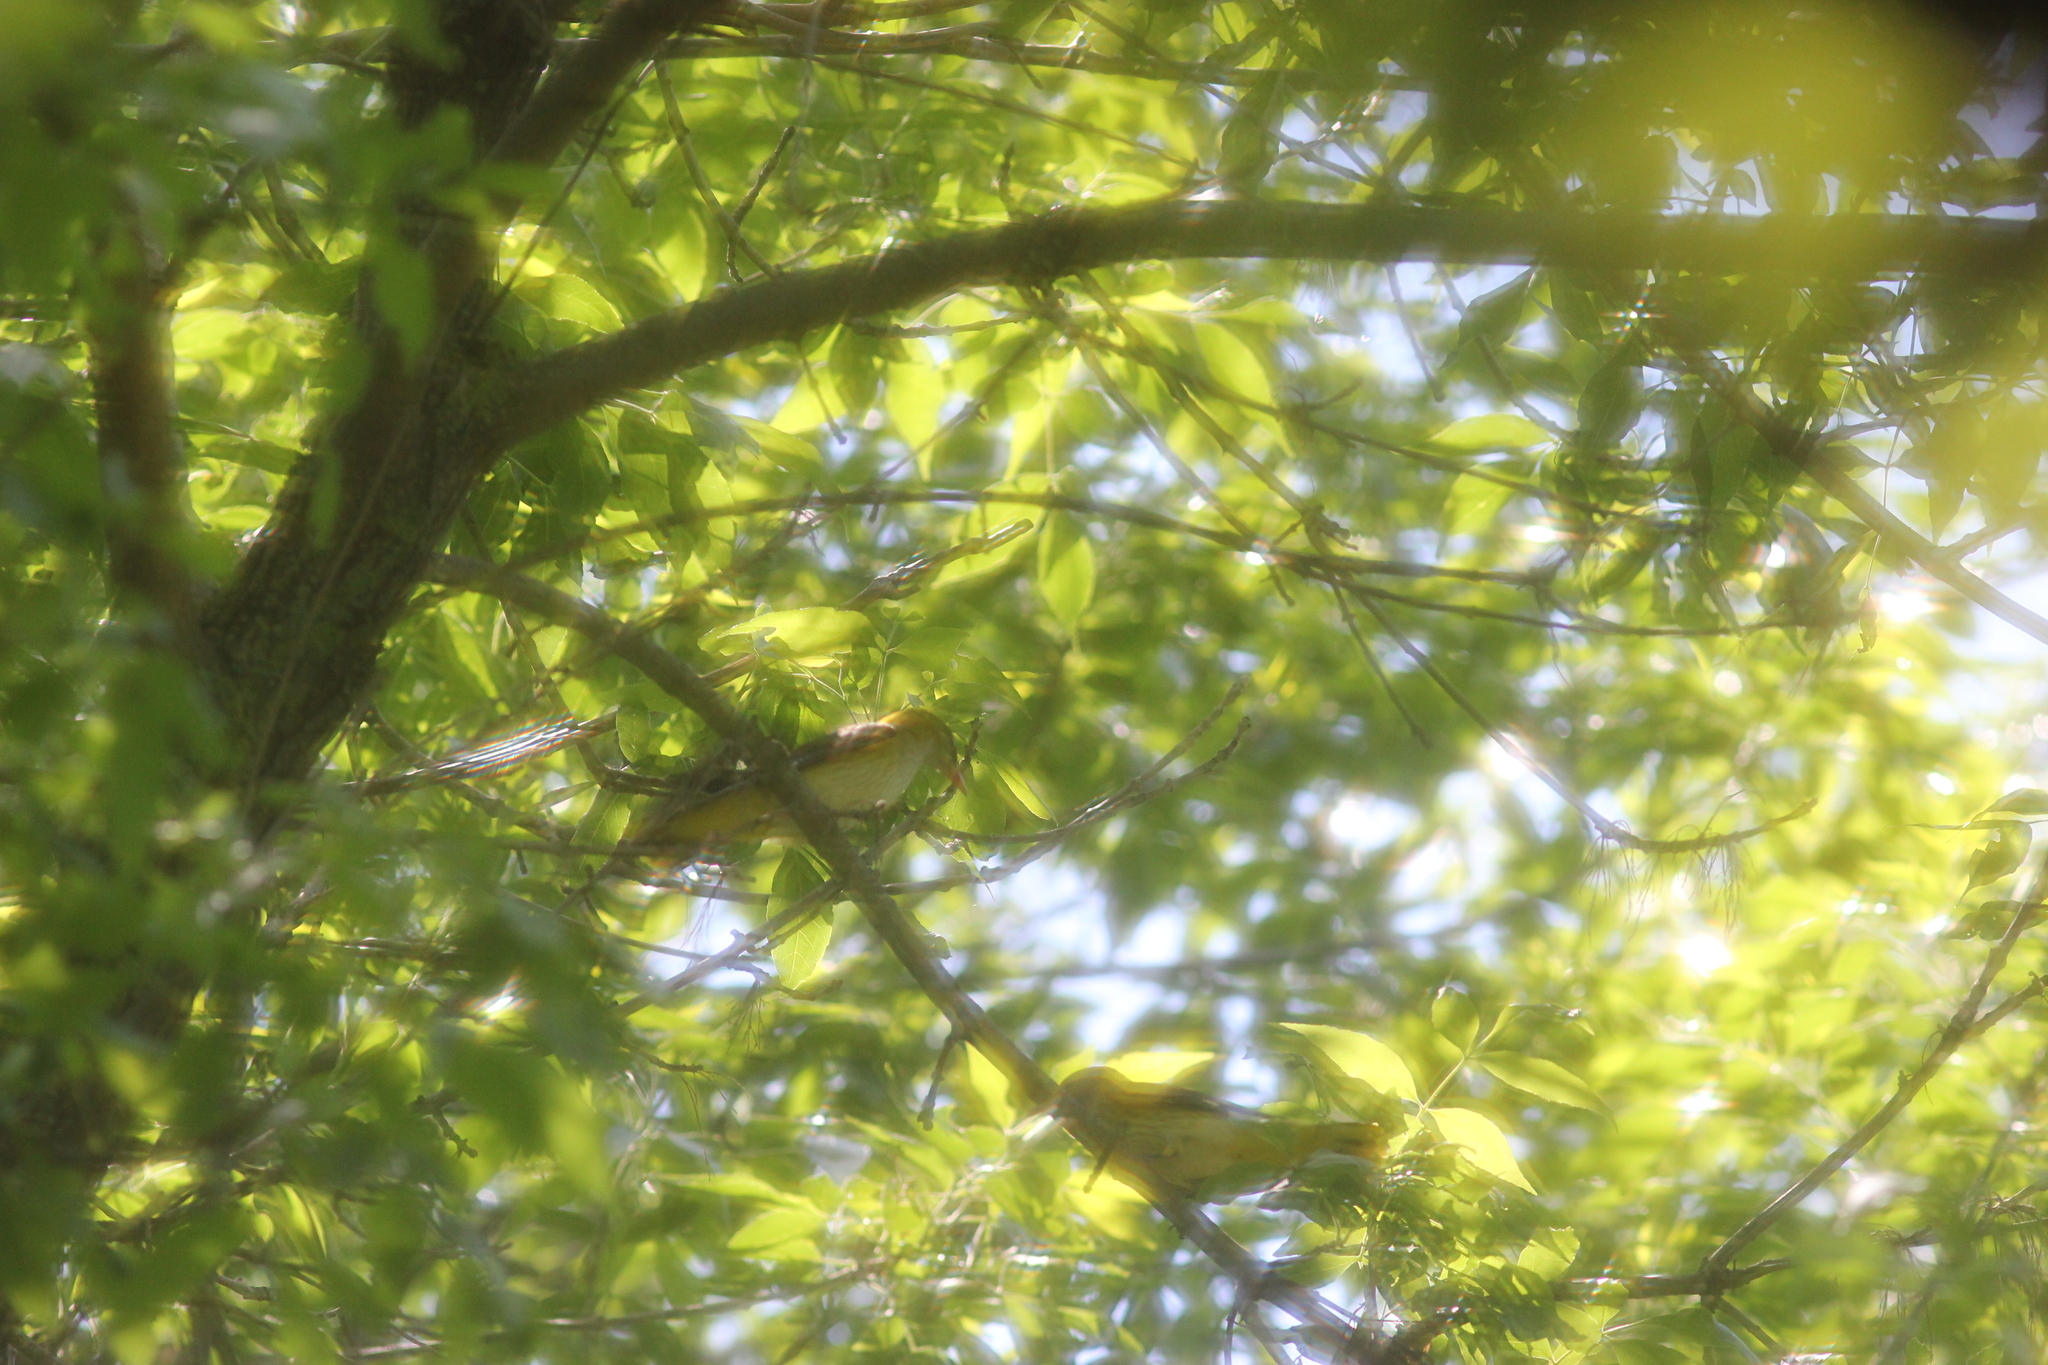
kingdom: Animalia
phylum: Chordata
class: Aves
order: Passeriformes
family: Oriolidae
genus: Oriolus
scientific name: Oriolus oriolus
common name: Eurasian golden oriole
